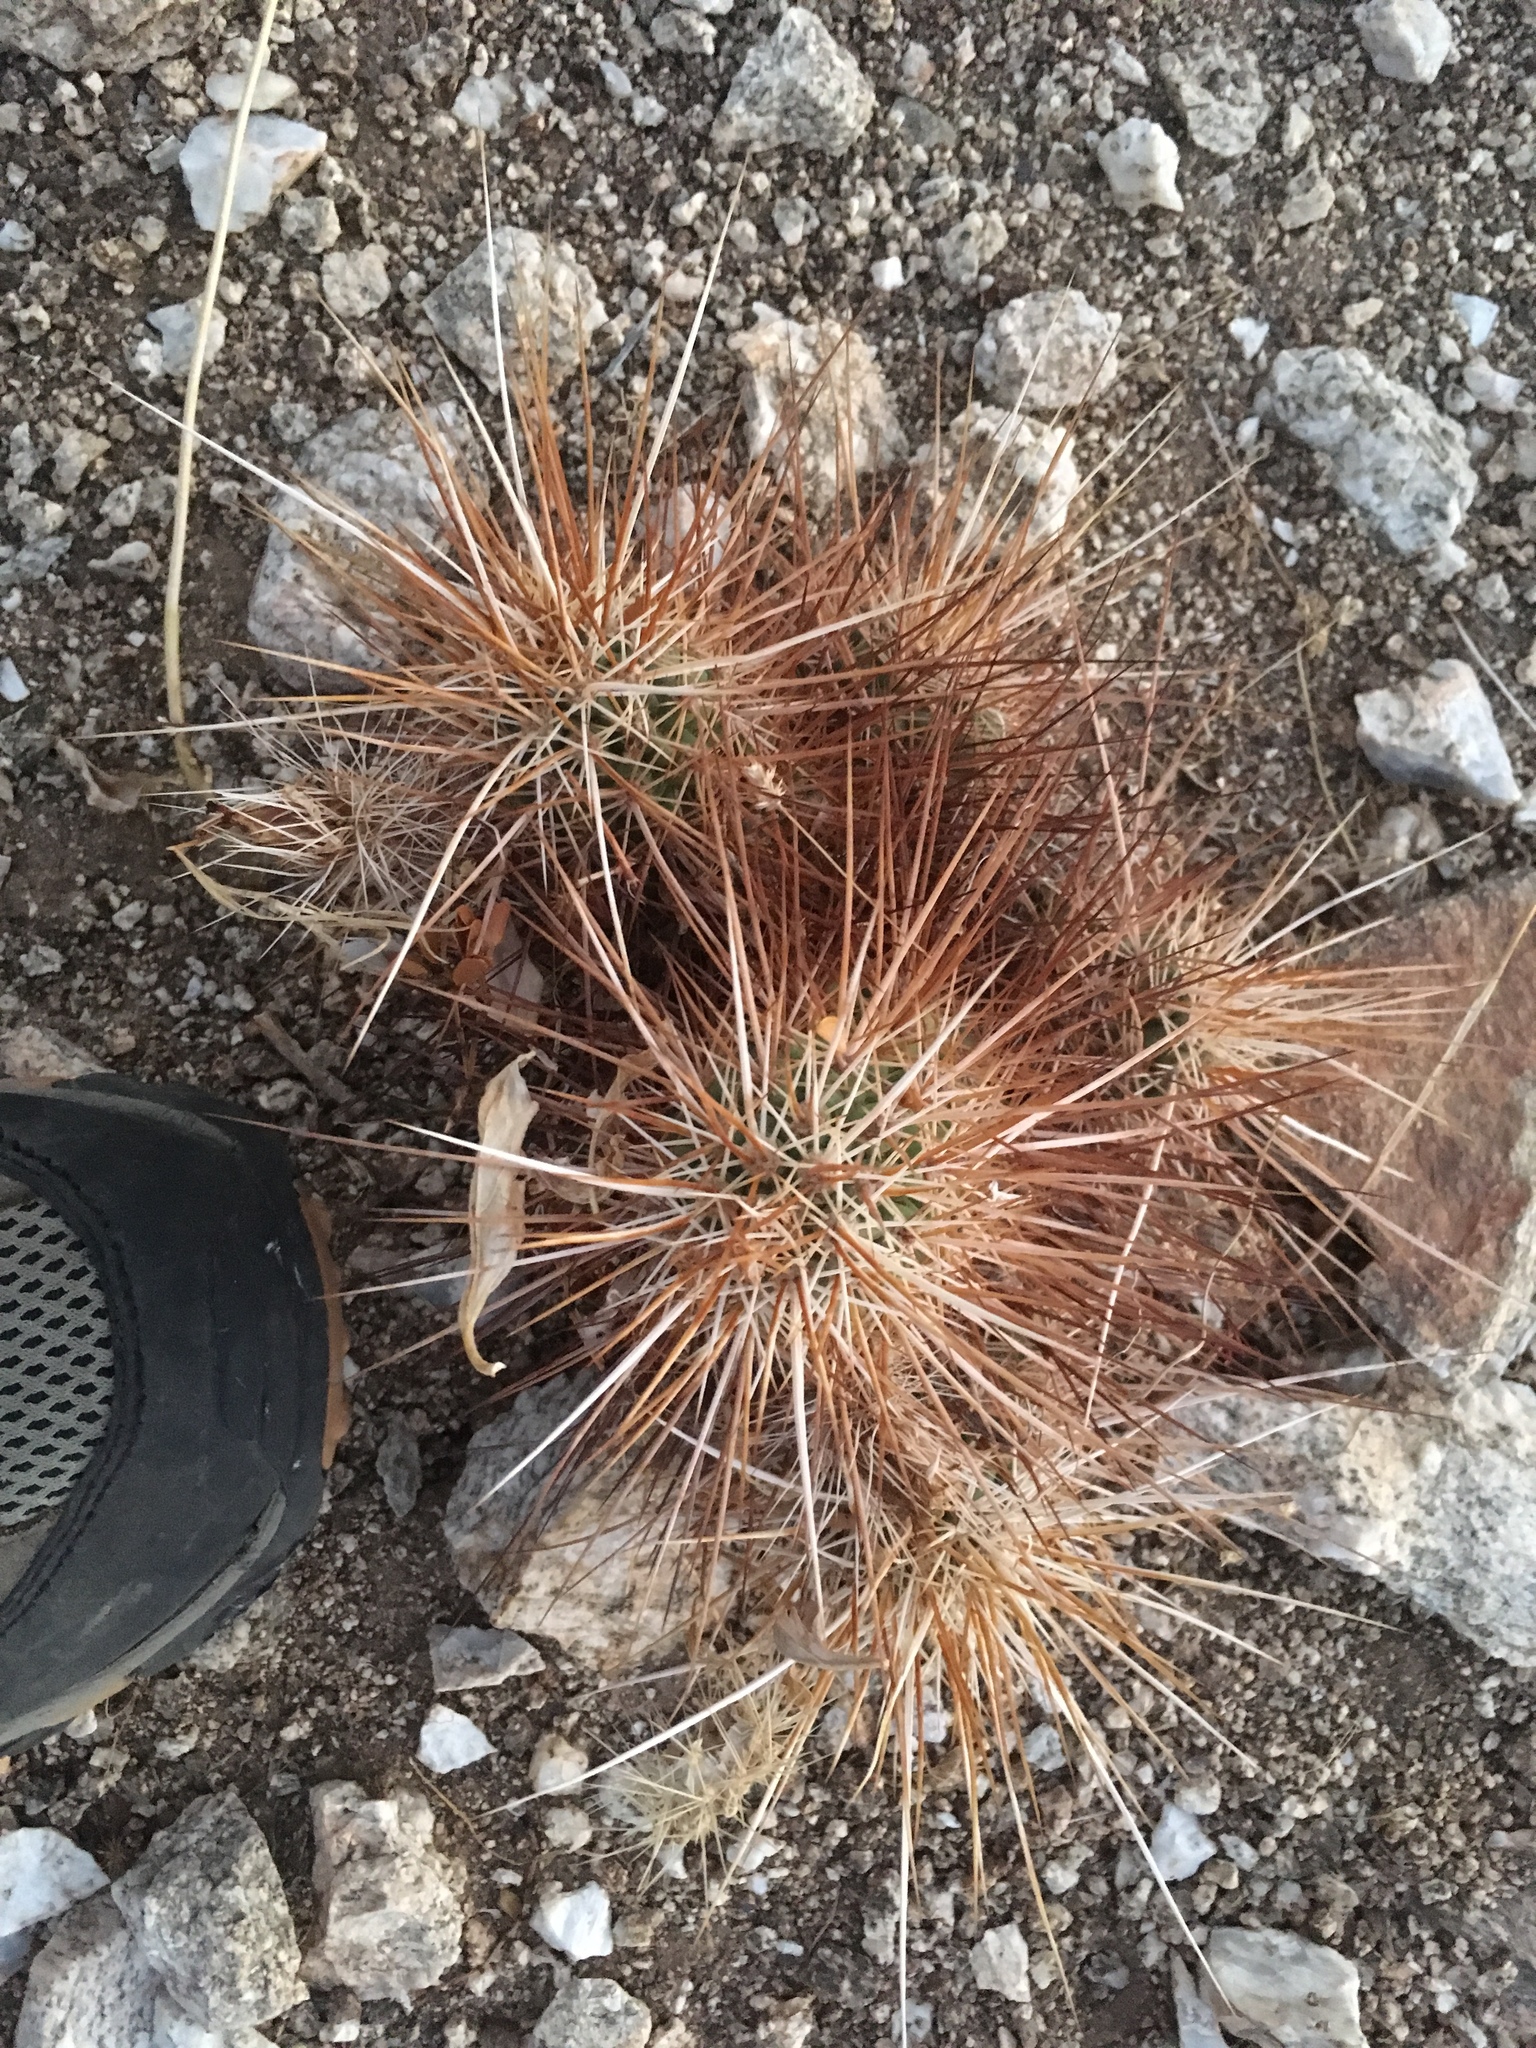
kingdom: Plantae
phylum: Tracheophyta
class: Magnoliopsida
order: Caryophyllales
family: Cactaceae
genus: Echinocereus
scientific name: Echinocereus engelmannii
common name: Engelmann's hedgehog cactus
